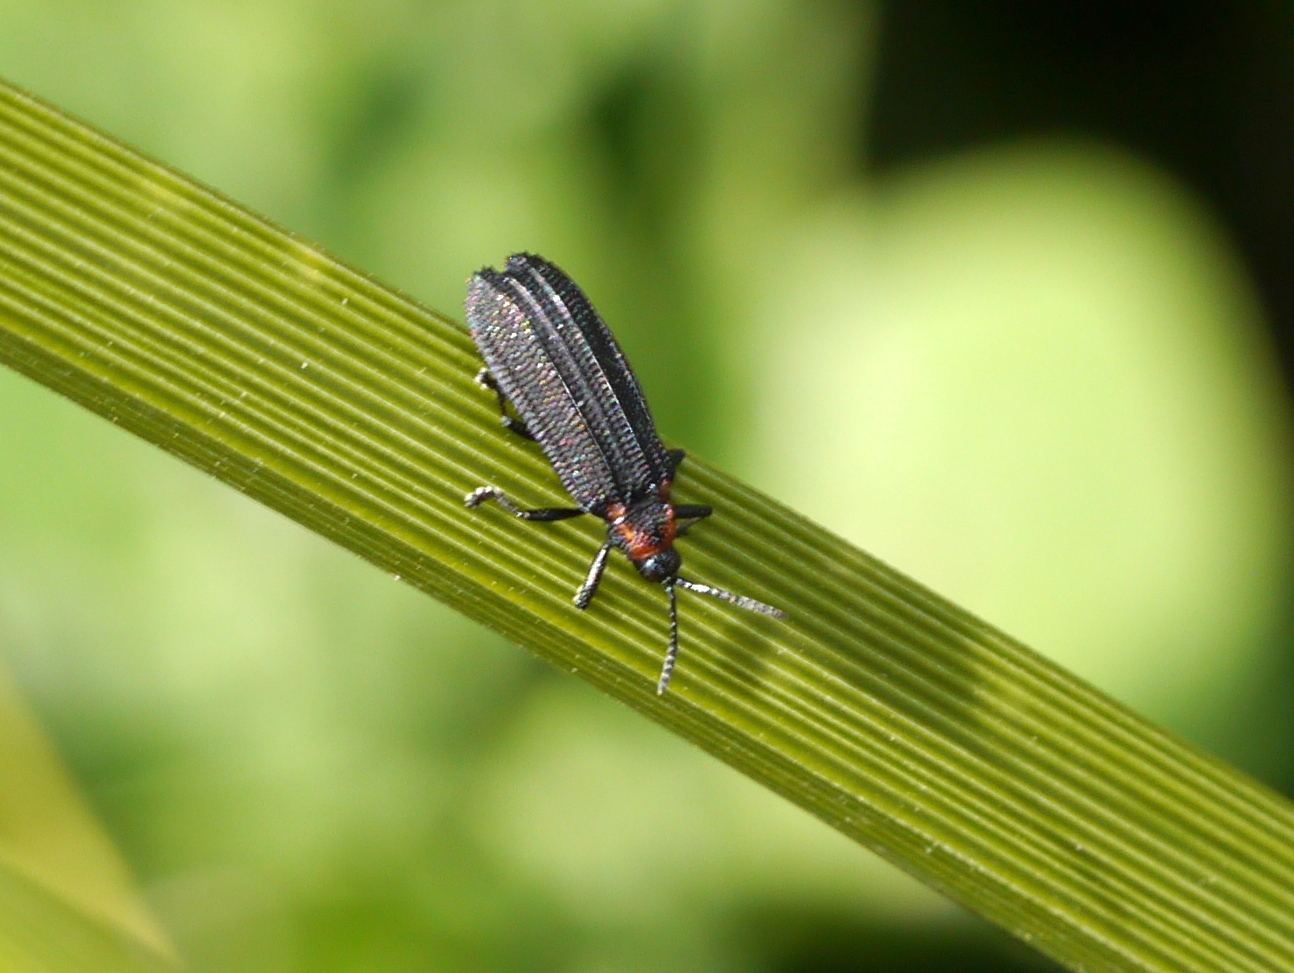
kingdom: Animalia
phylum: Arthropoda
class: Insecta
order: Coleoptera
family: Chrysomelidae
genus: Xenochalepus
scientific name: Xenochalepus ater
